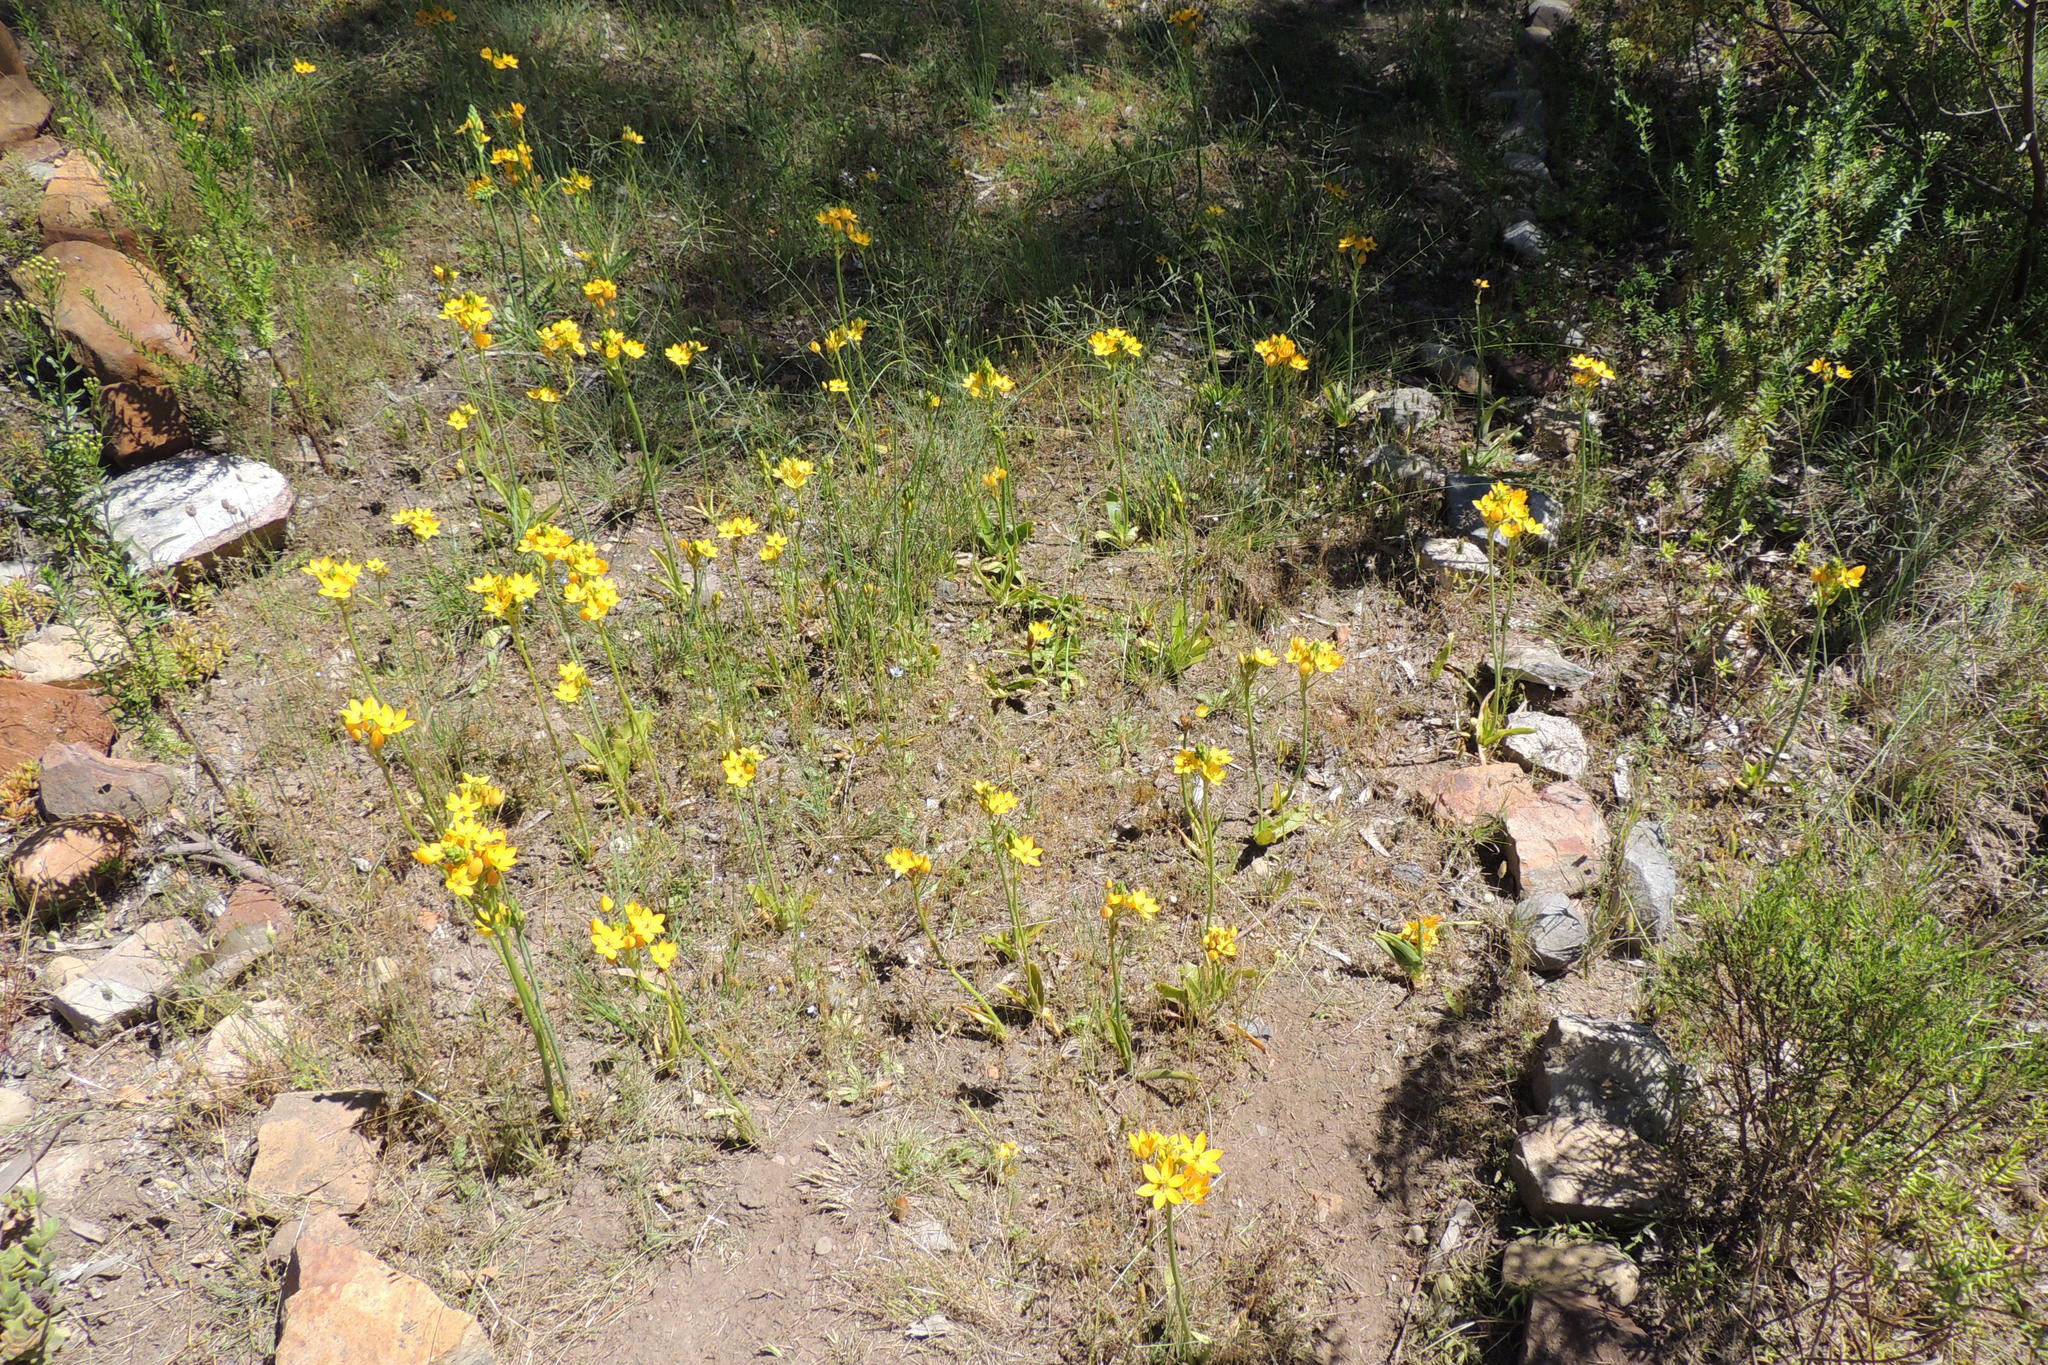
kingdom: Plantae
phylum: Tracheophyta
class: Liliopsida
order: Asparagales
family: Asparagaceae
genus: Ornithogalum
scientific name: Ornithogalum dubium
